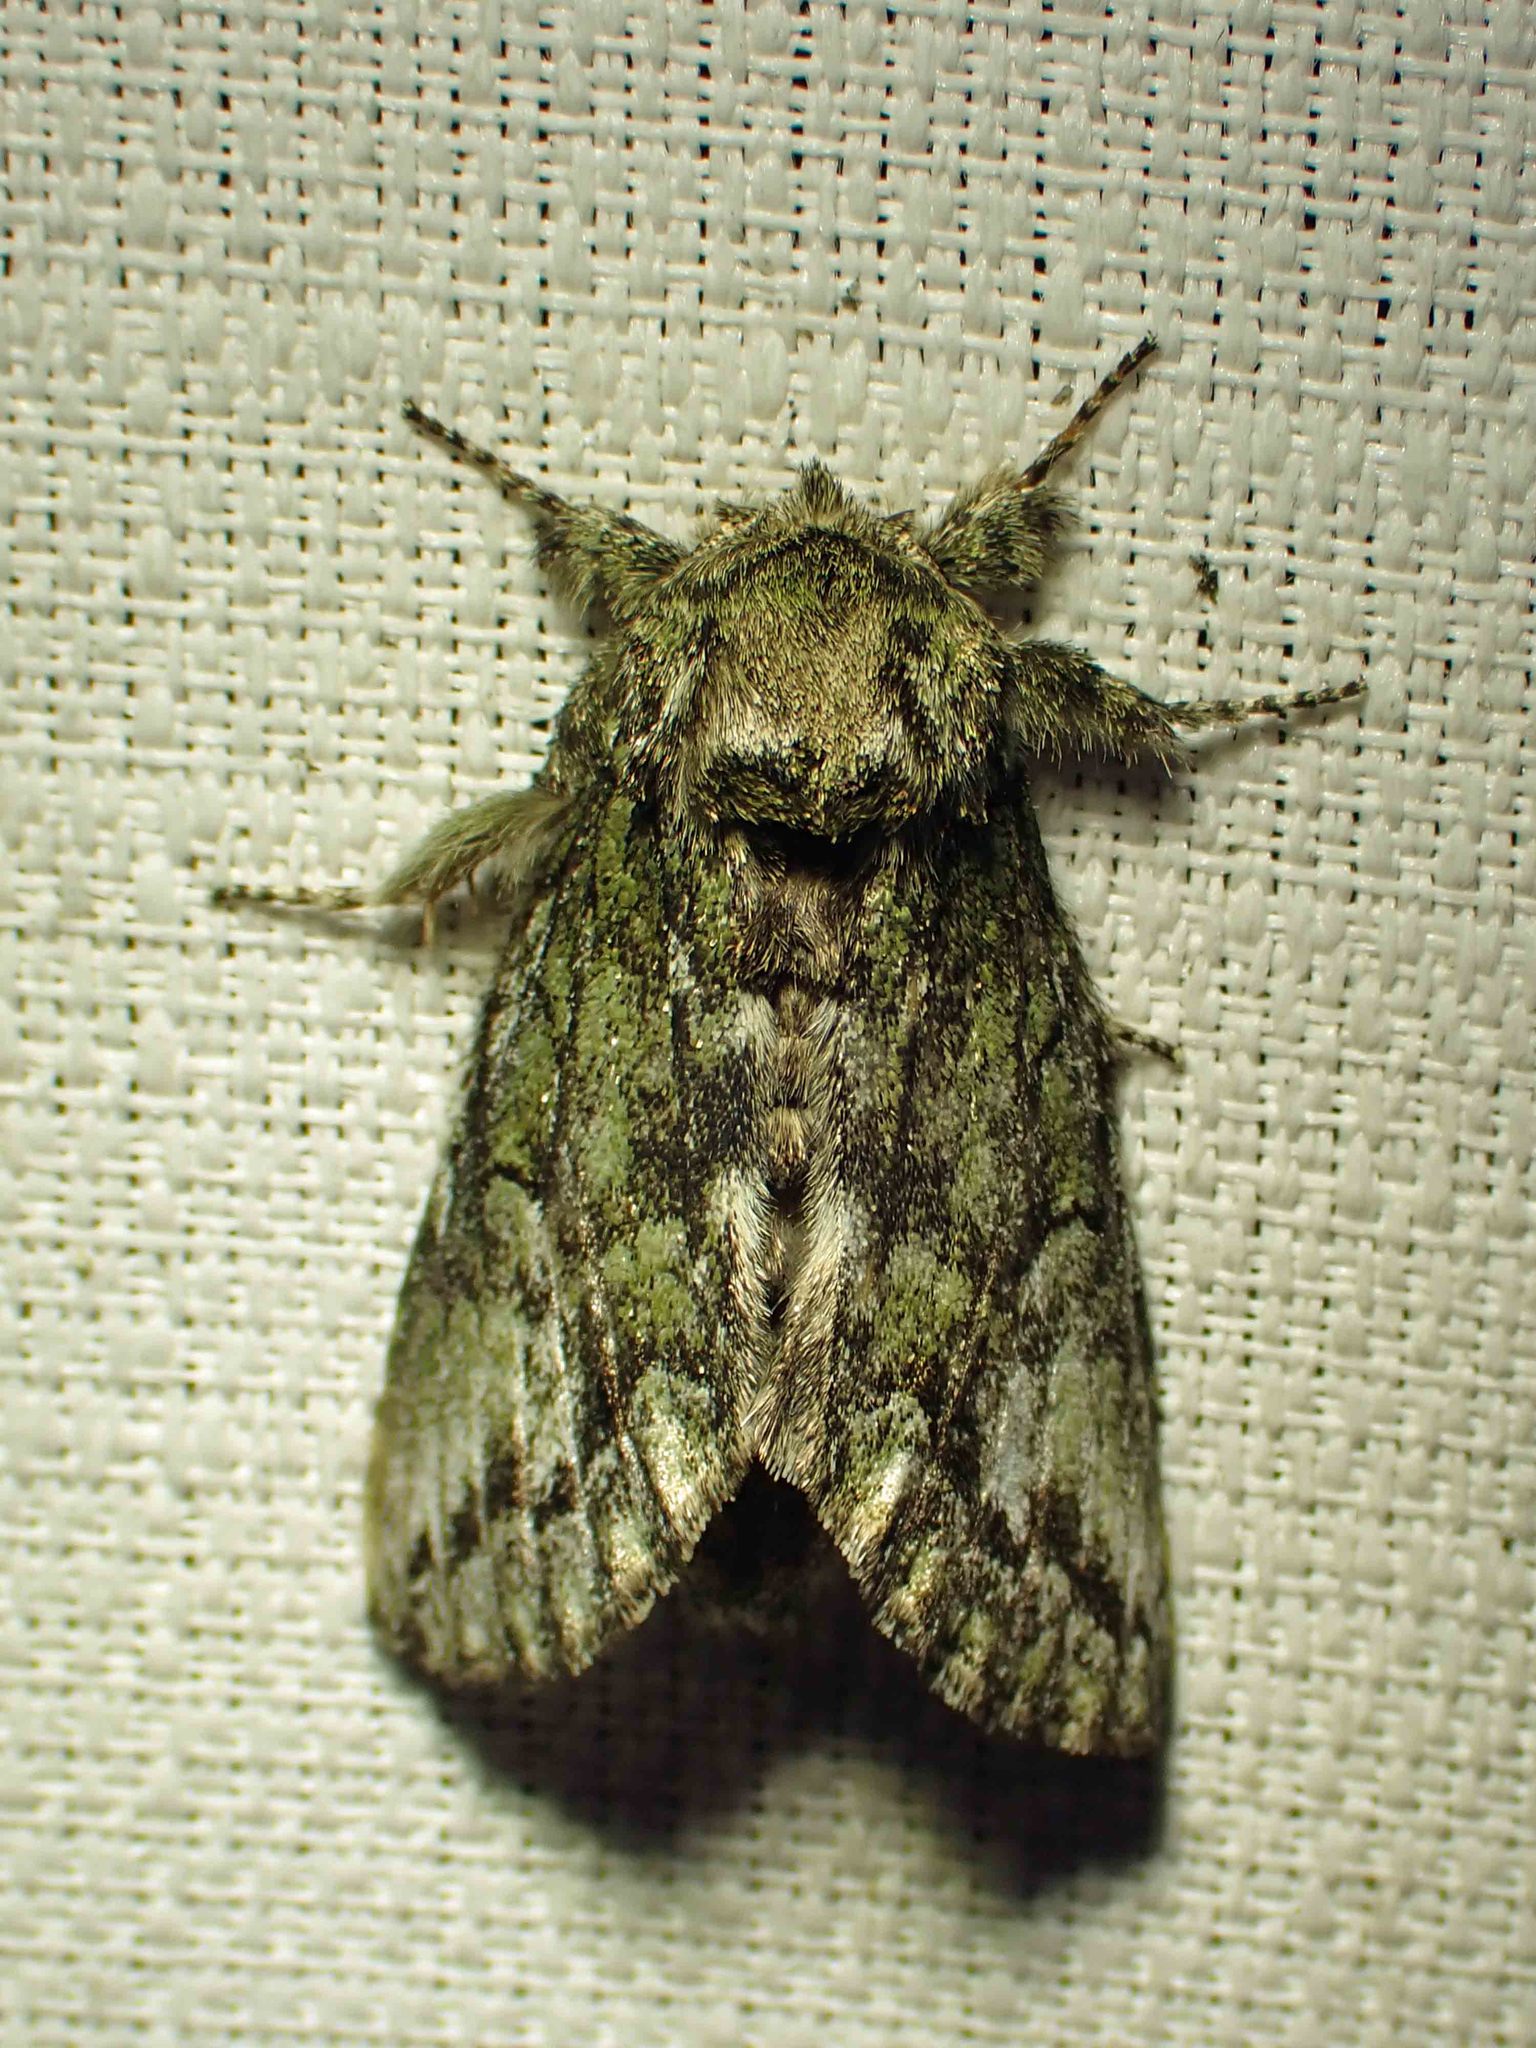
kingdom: Animalia
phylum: Arthropoda
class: Insecta
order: Lepidoptera
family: Notodontidae
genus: Heterocampa
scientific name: Heterocampa
